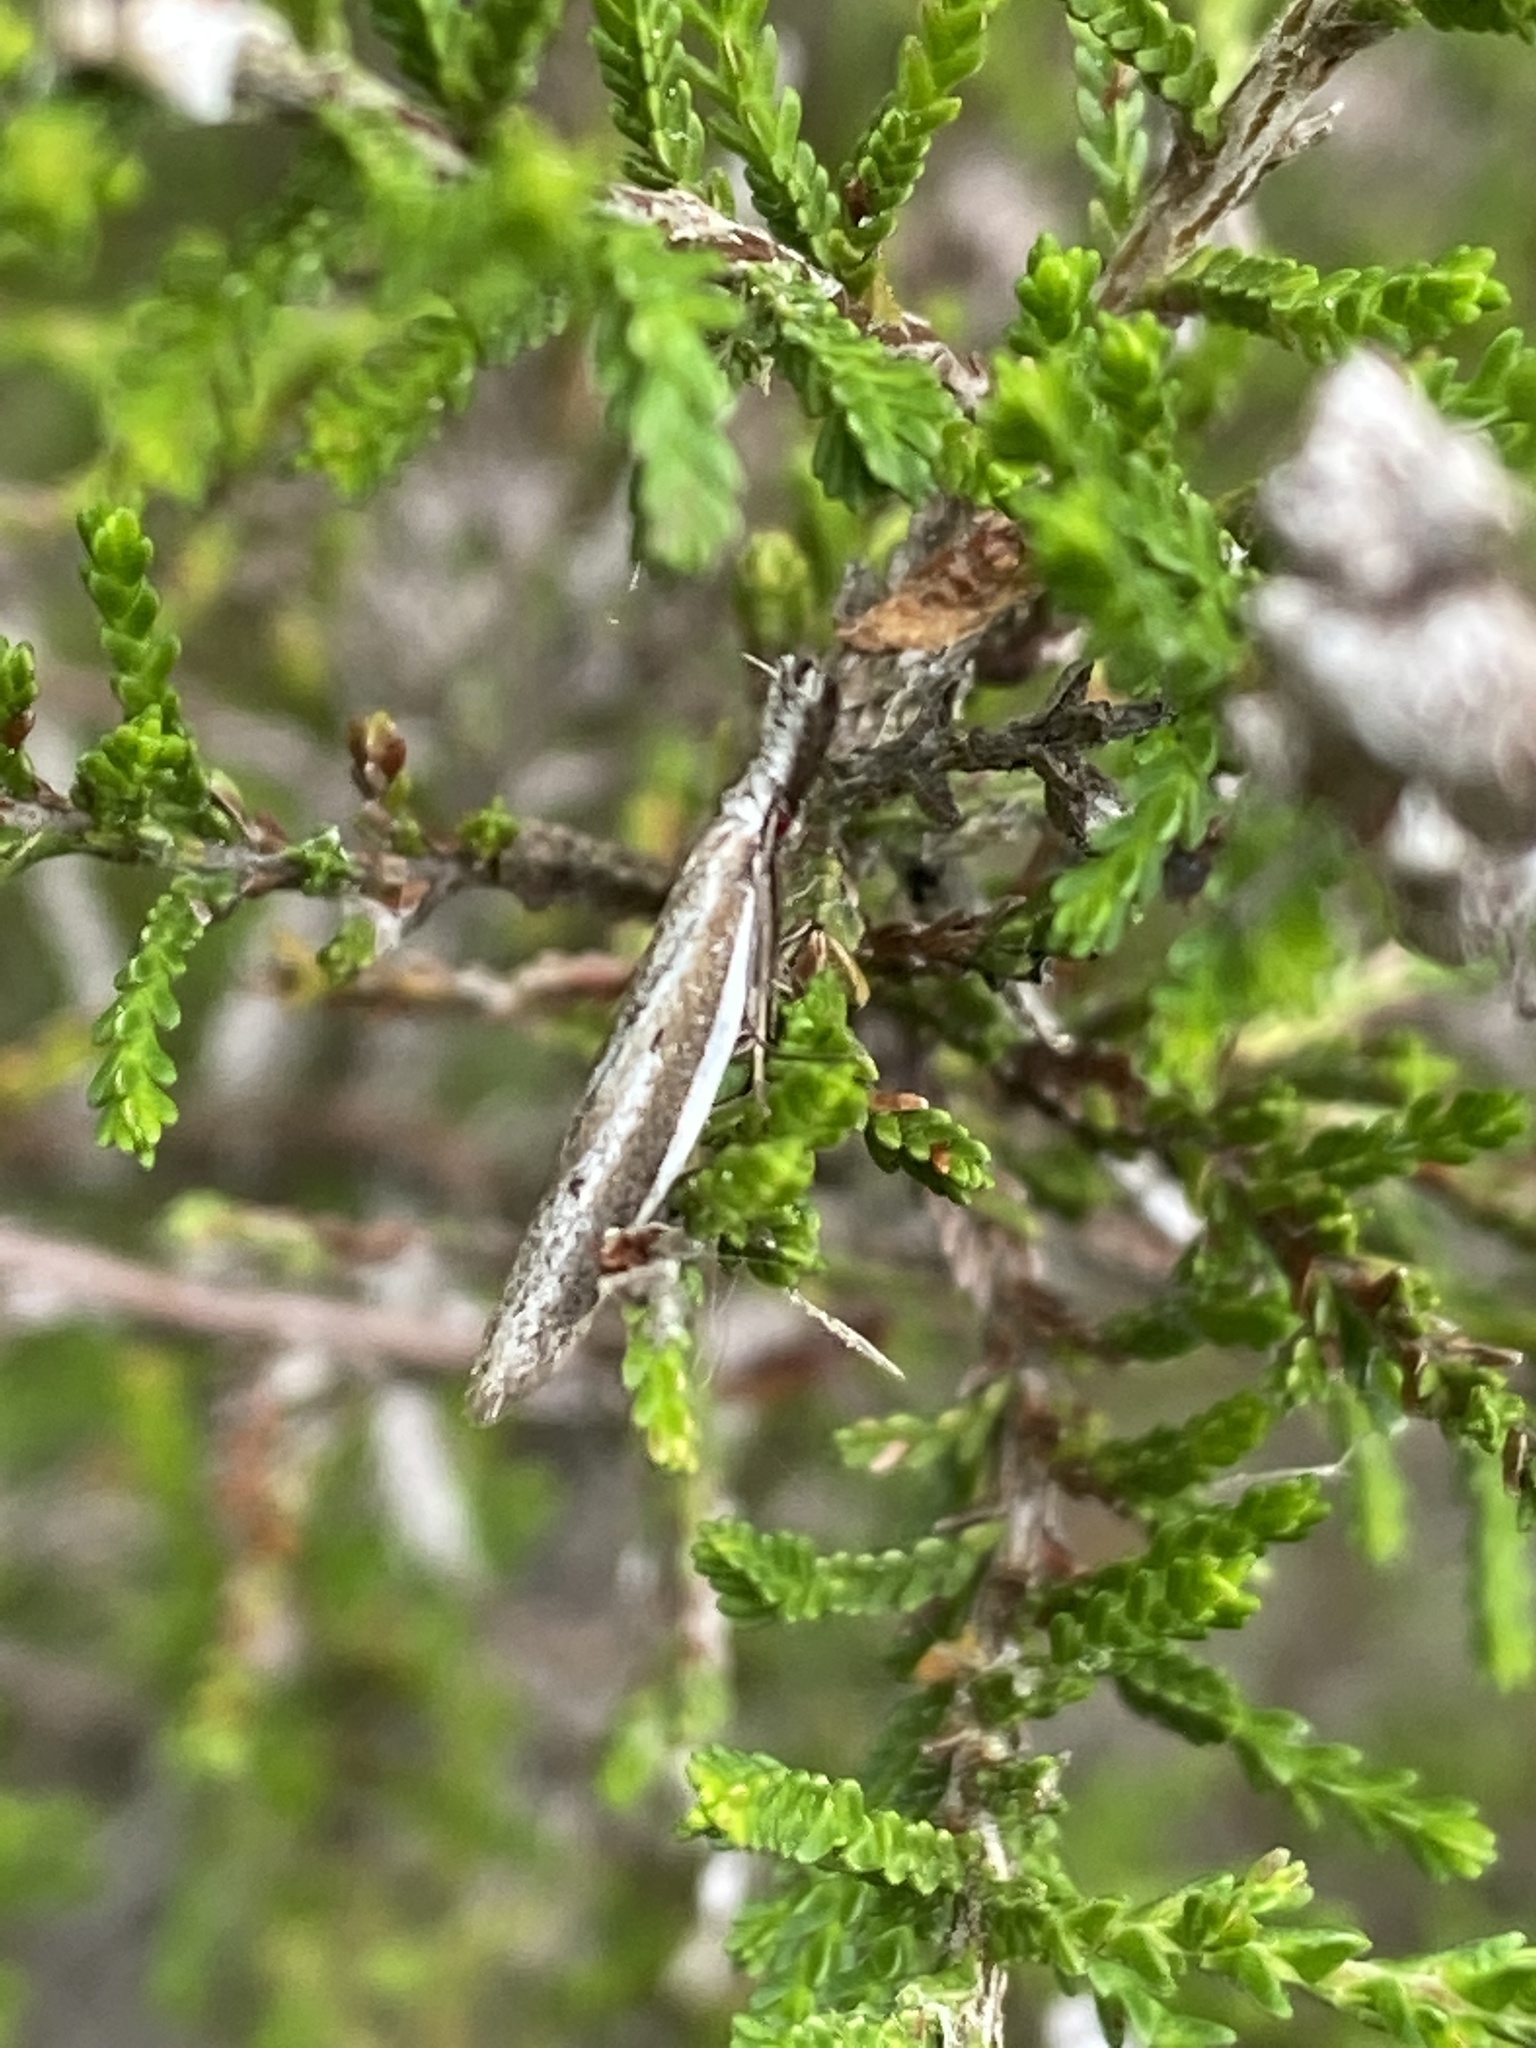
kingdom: Animalia
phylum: Arthropoda
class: Insecta
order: Lepidoptera
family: Oecophoridae
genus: Pleurota
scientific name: Pleurota bicostella
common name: Light streak
